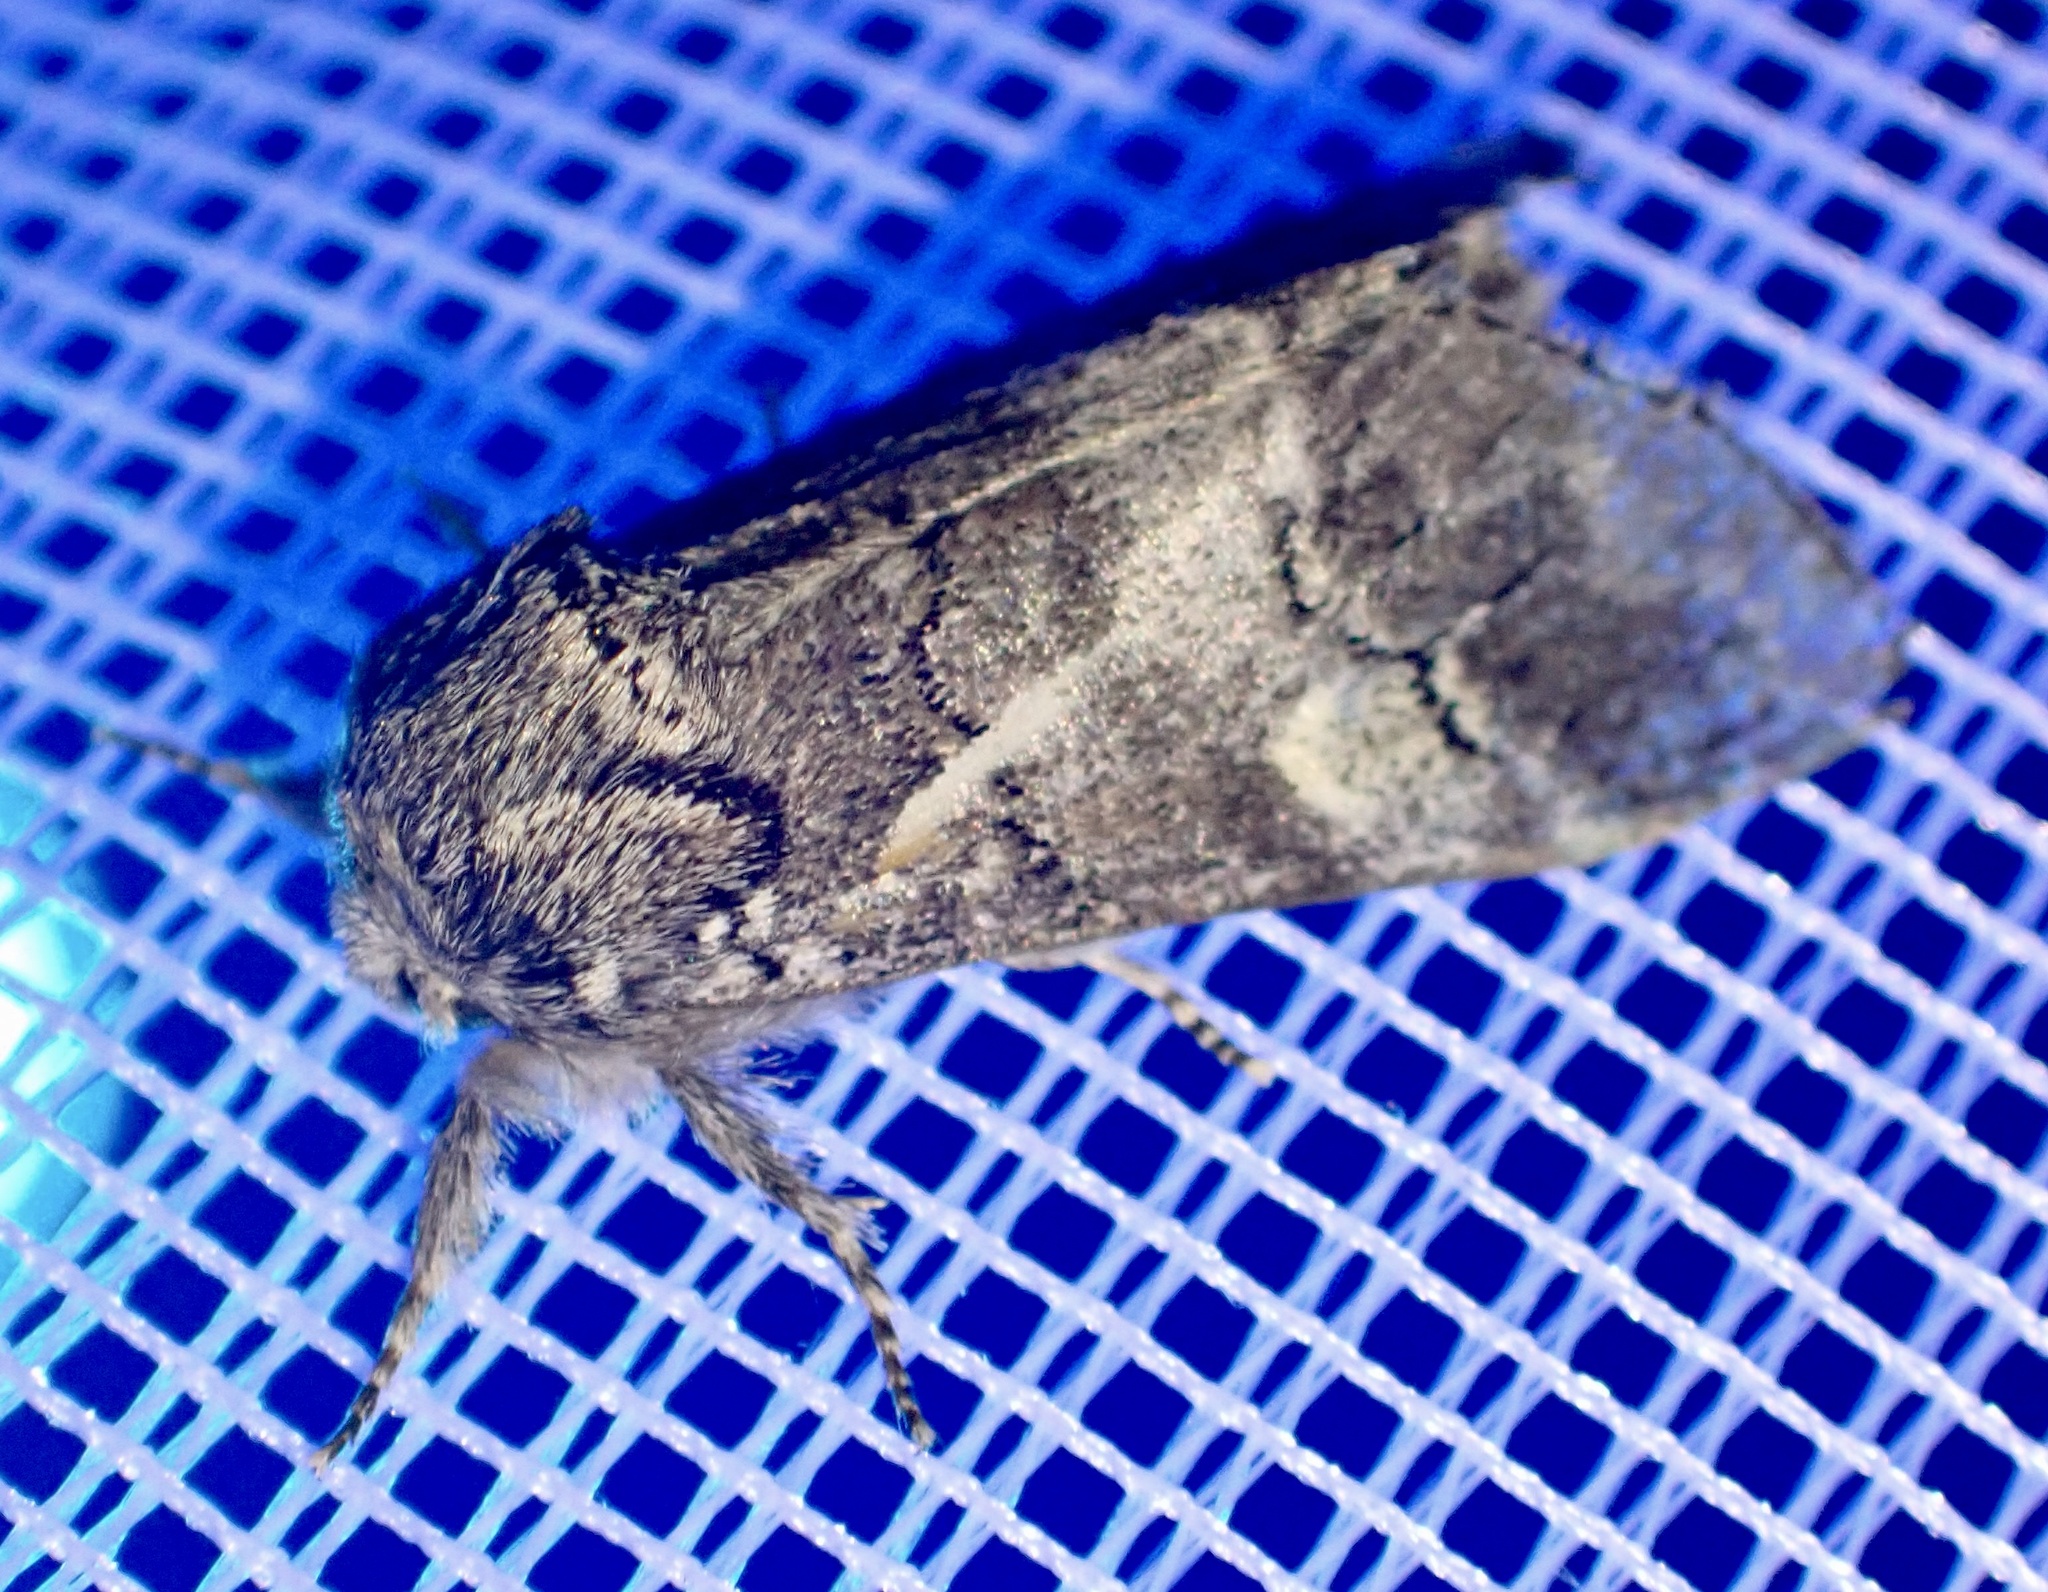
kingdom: Animalia
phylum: Arthropoda
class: Insecta
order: Lepidoptera
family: Notodontidae
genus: Drymonia
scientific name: Drymonia querna
